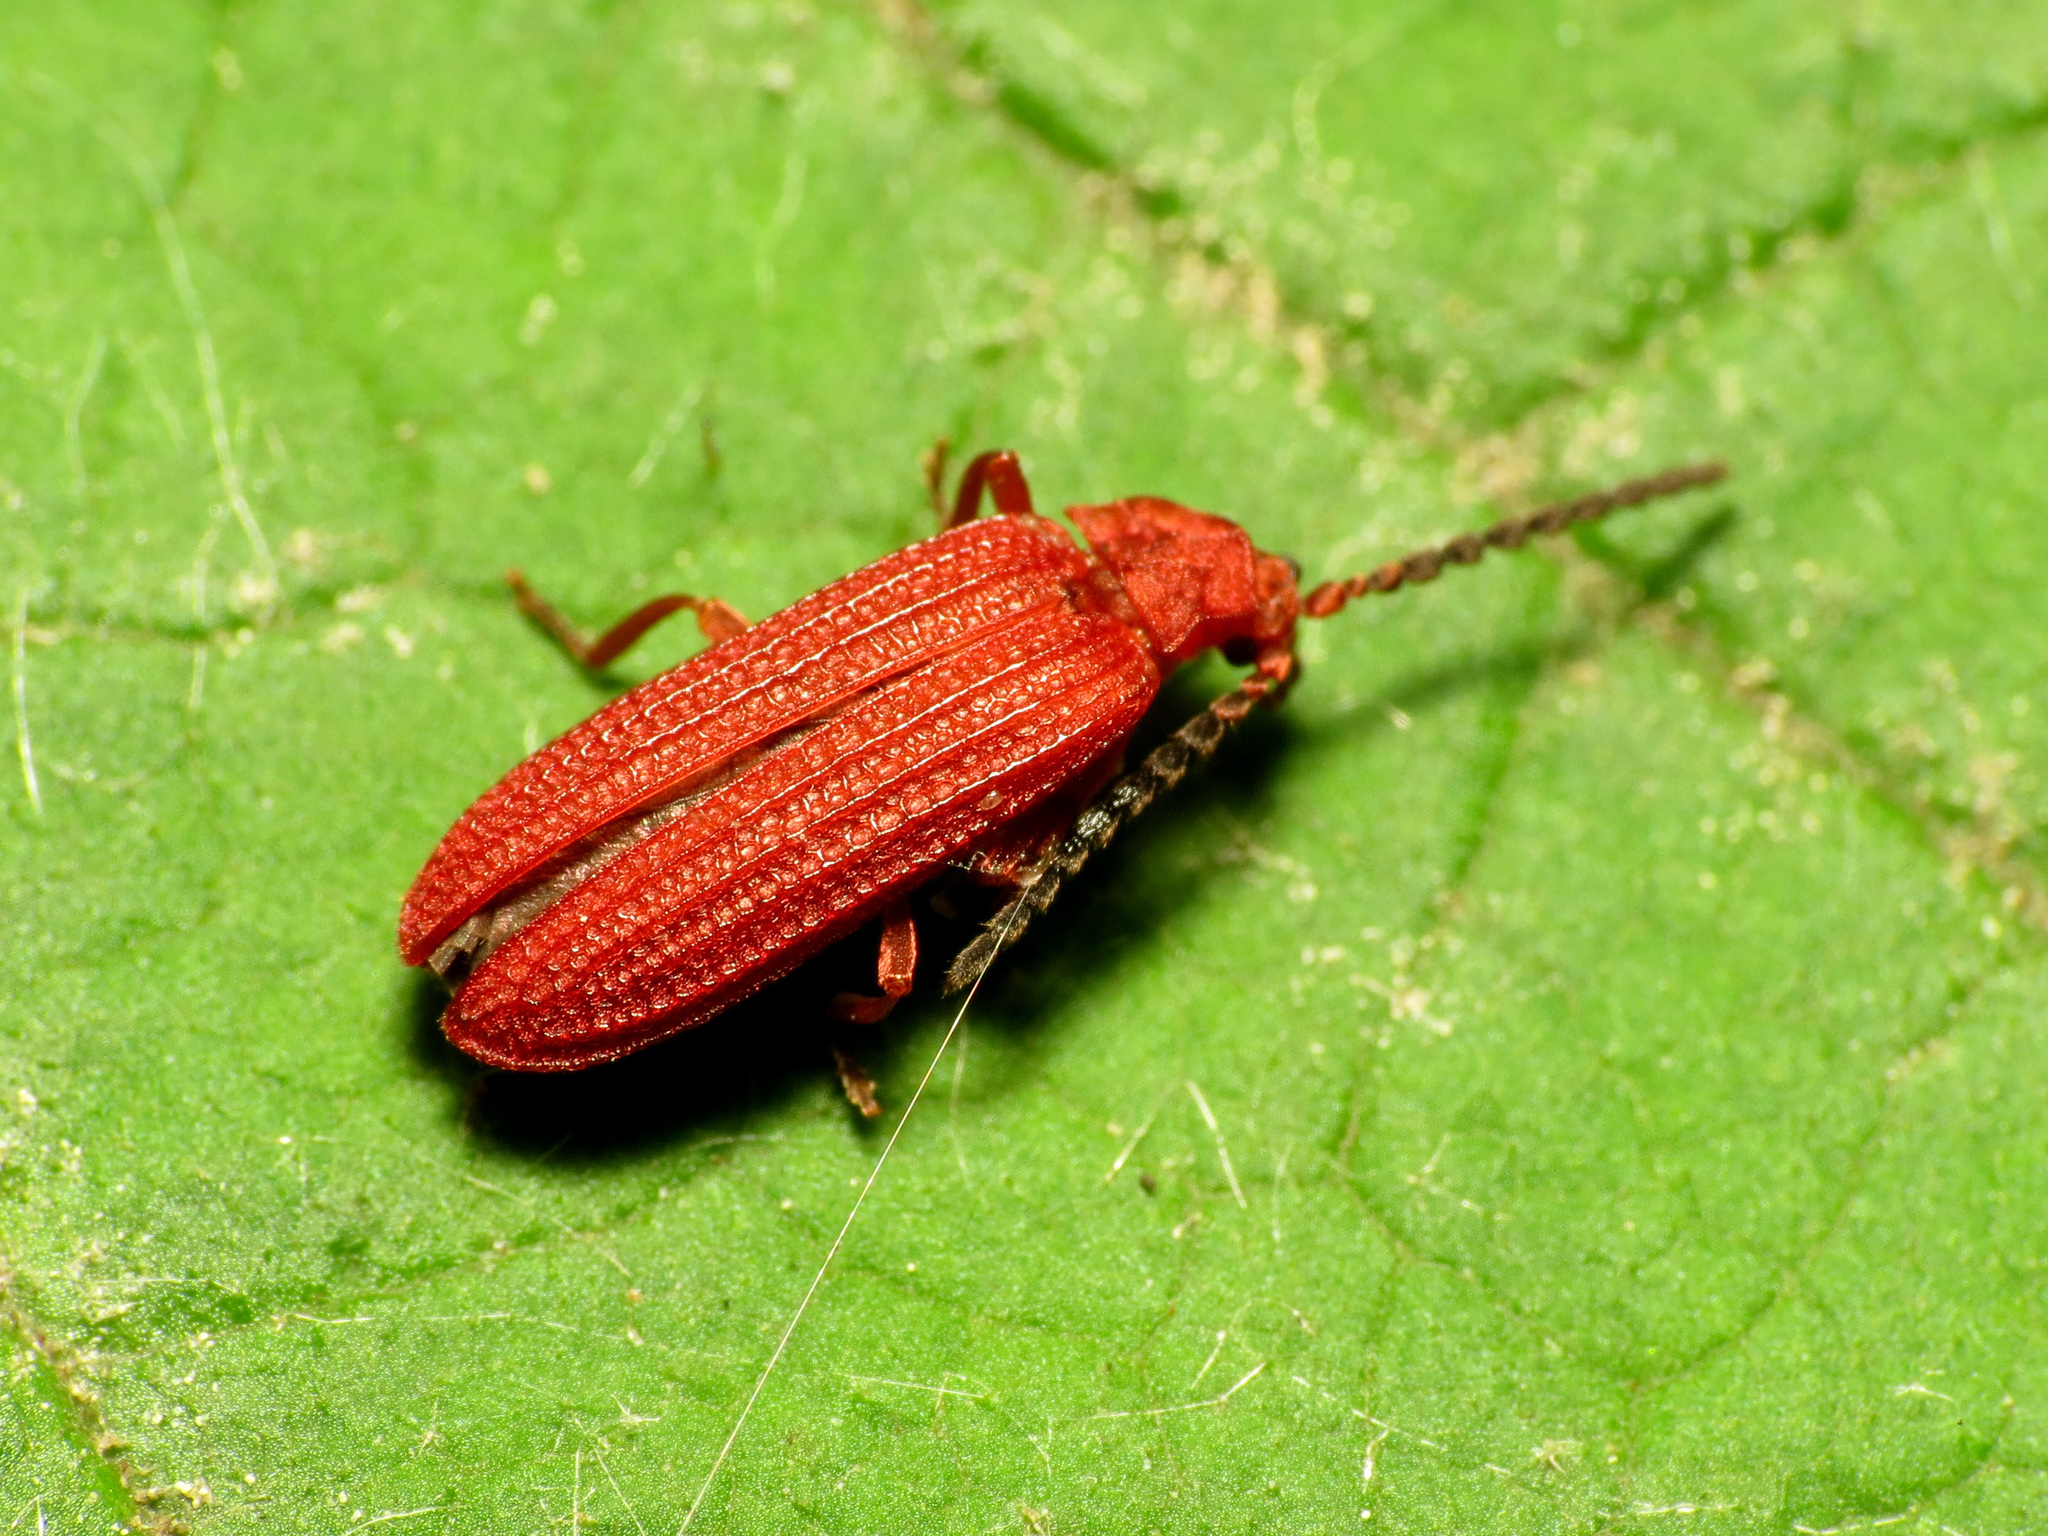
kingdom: Animalia
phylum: Arthropoda
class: Insecta
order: Coleoptera
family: Lycidae
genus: Punicealis
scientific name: Punicealis
